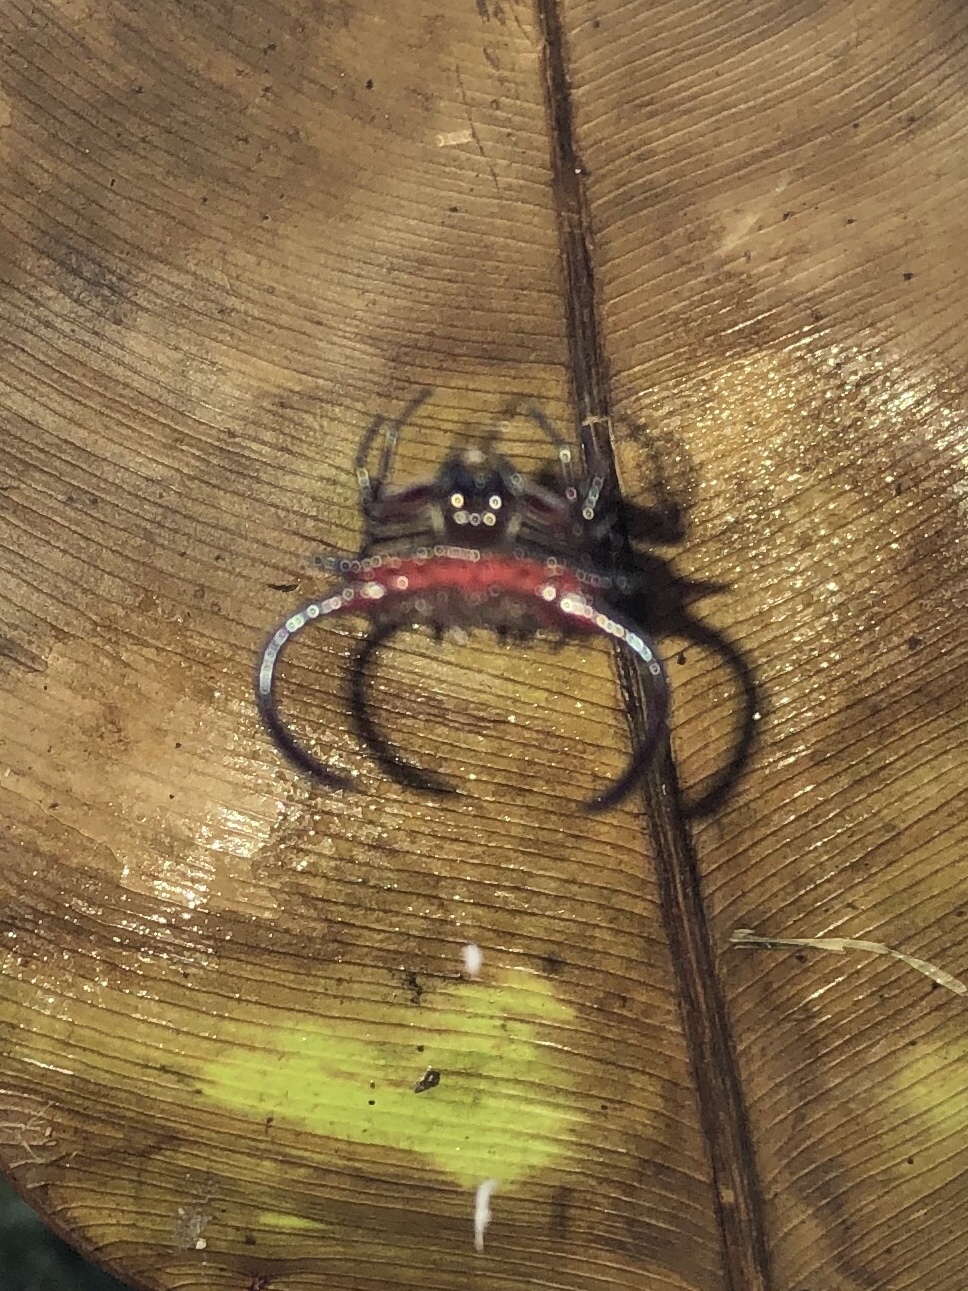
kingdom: Animalia
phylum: Arthropoda
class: Arachnida
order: Araneae
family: Araneidae
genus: Gasteracantha
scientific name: Gasteracantha falcicornis
